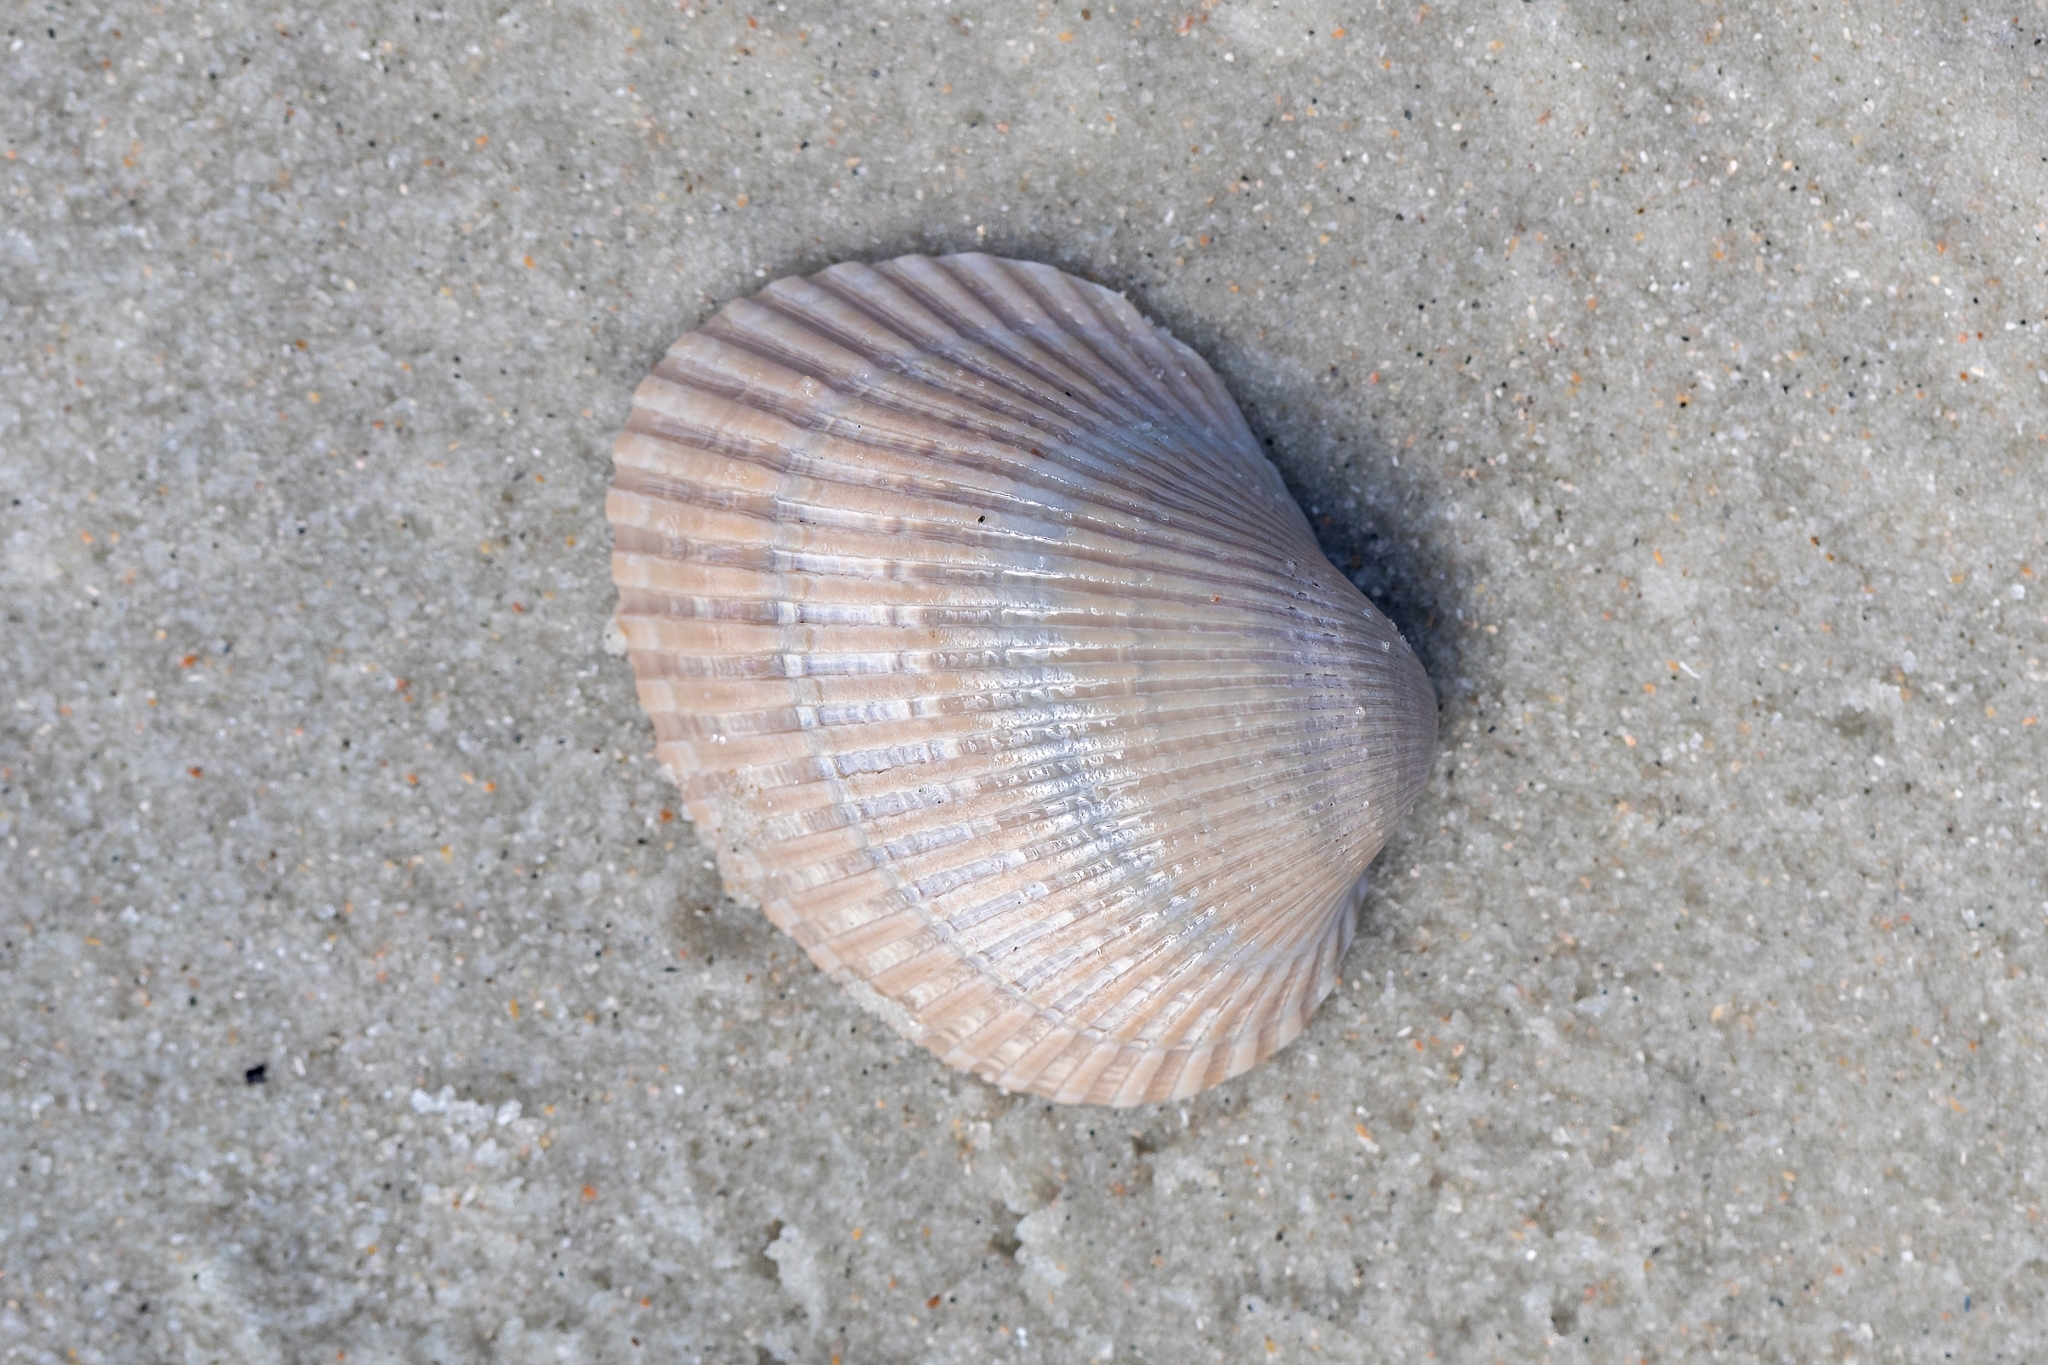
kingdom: Animalia
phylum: Mollusca
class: Bivalvia
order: Arcida
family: Arcidae
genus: Lunarca
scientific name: Lunarca ovalis
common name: Blood ark
